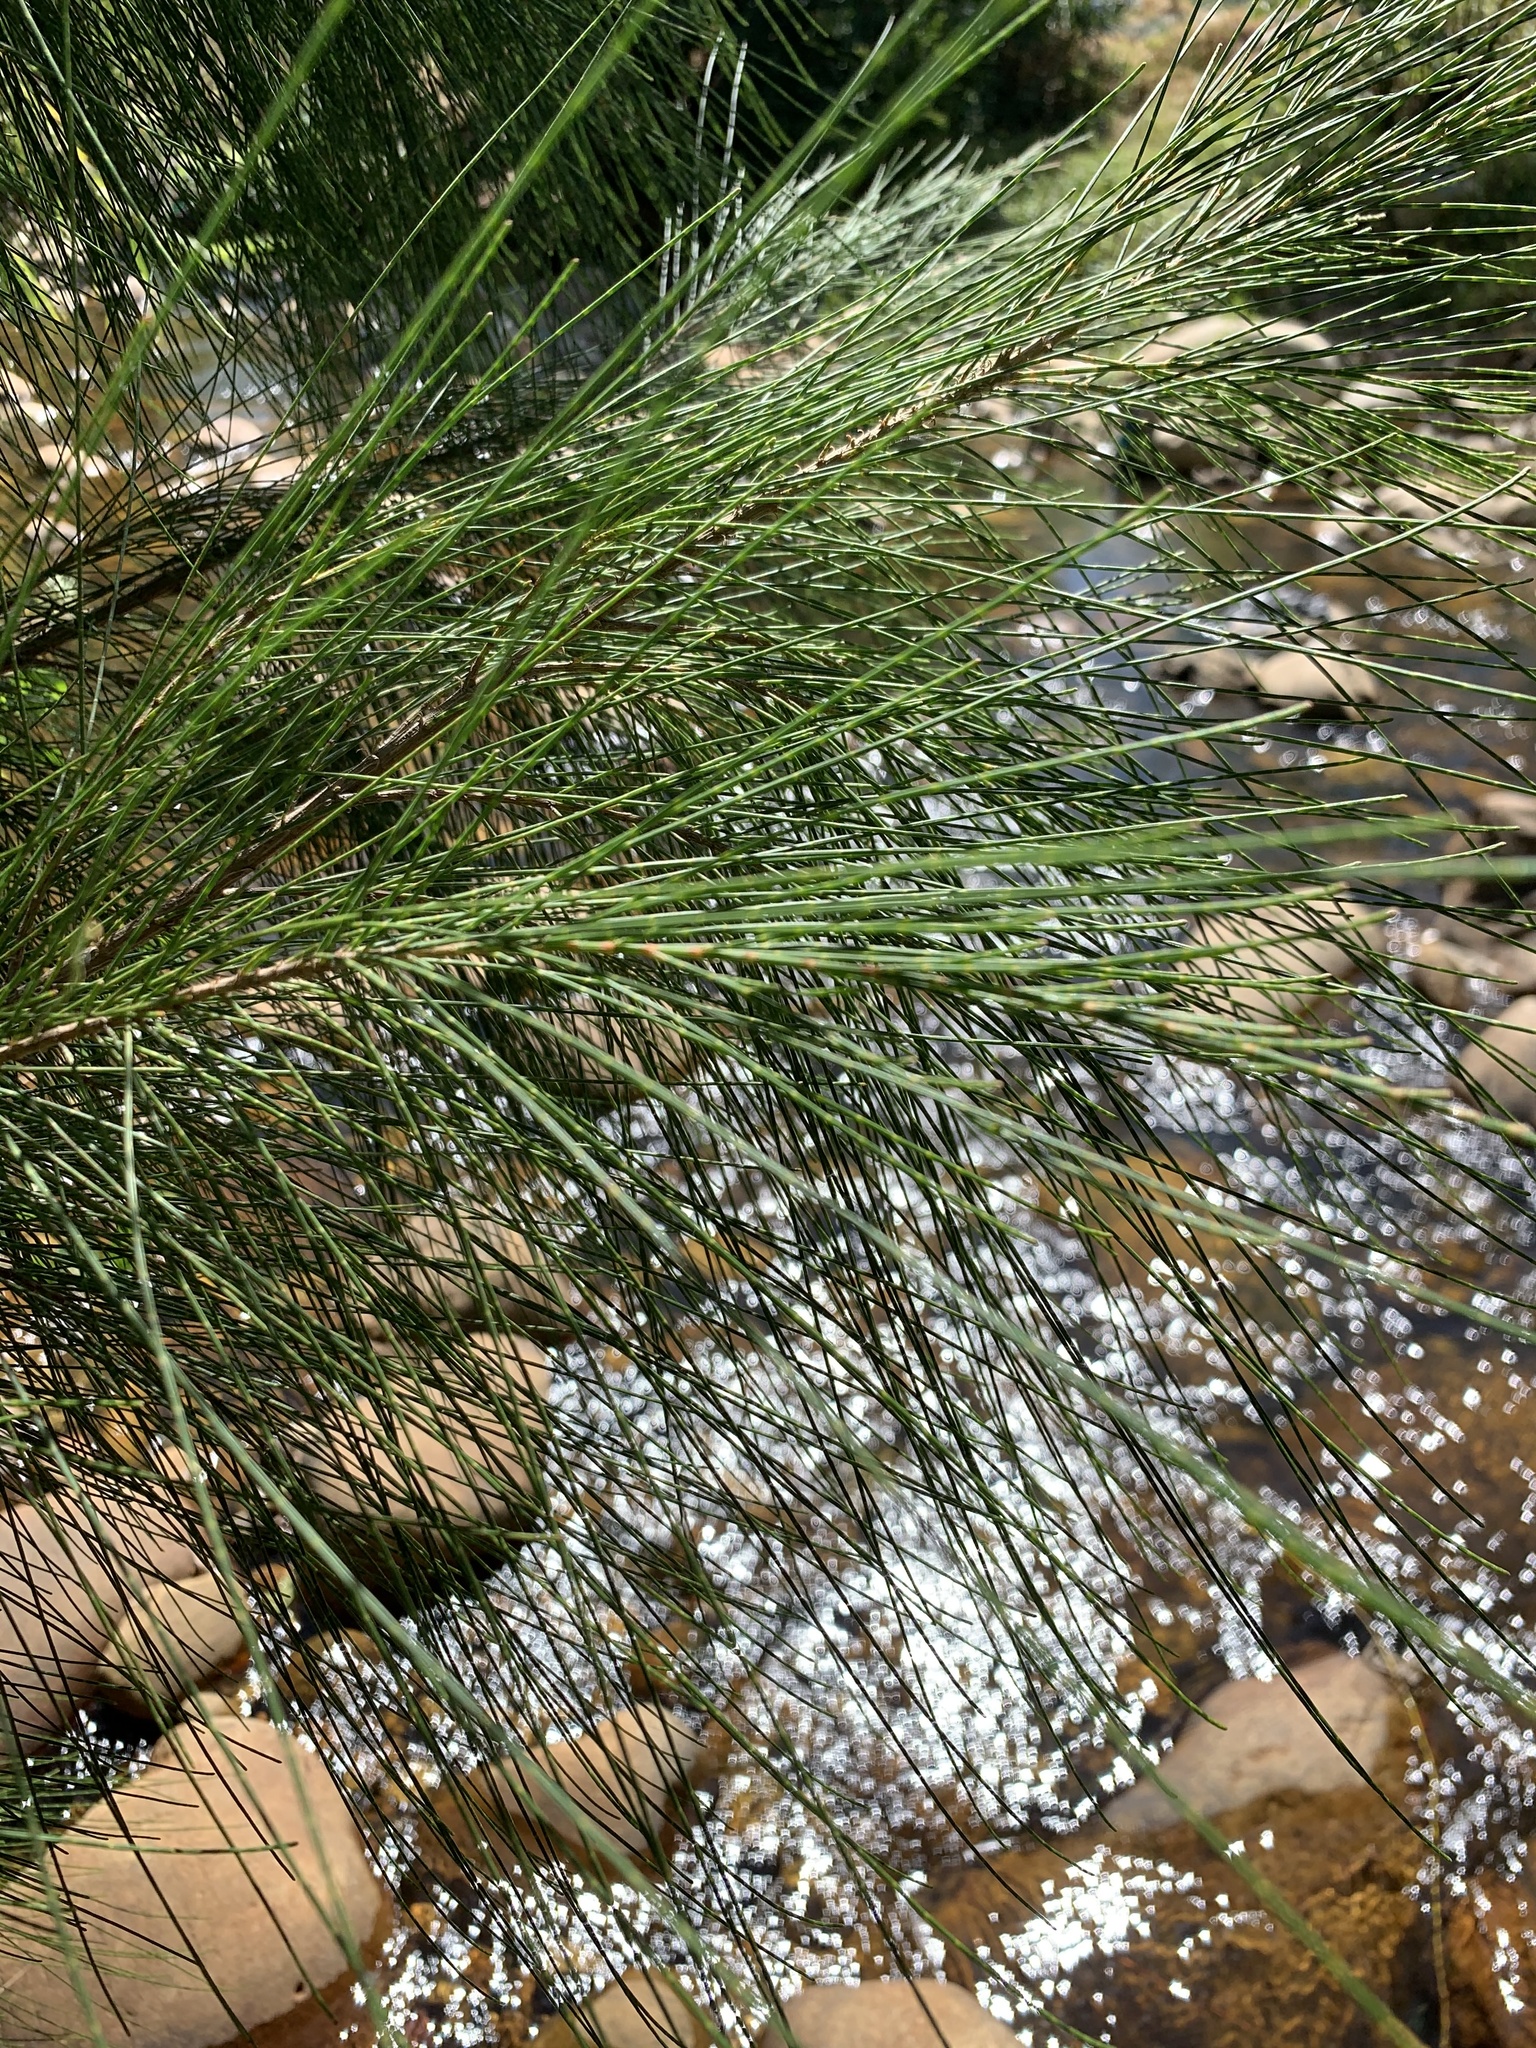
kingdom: Plantae
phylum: Tracheophyta
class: Magnoliopsida
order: Fagales
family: Casuarinaceae
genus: Casuarina
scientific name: Casuarina cunninghamiana
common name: River sheoak
